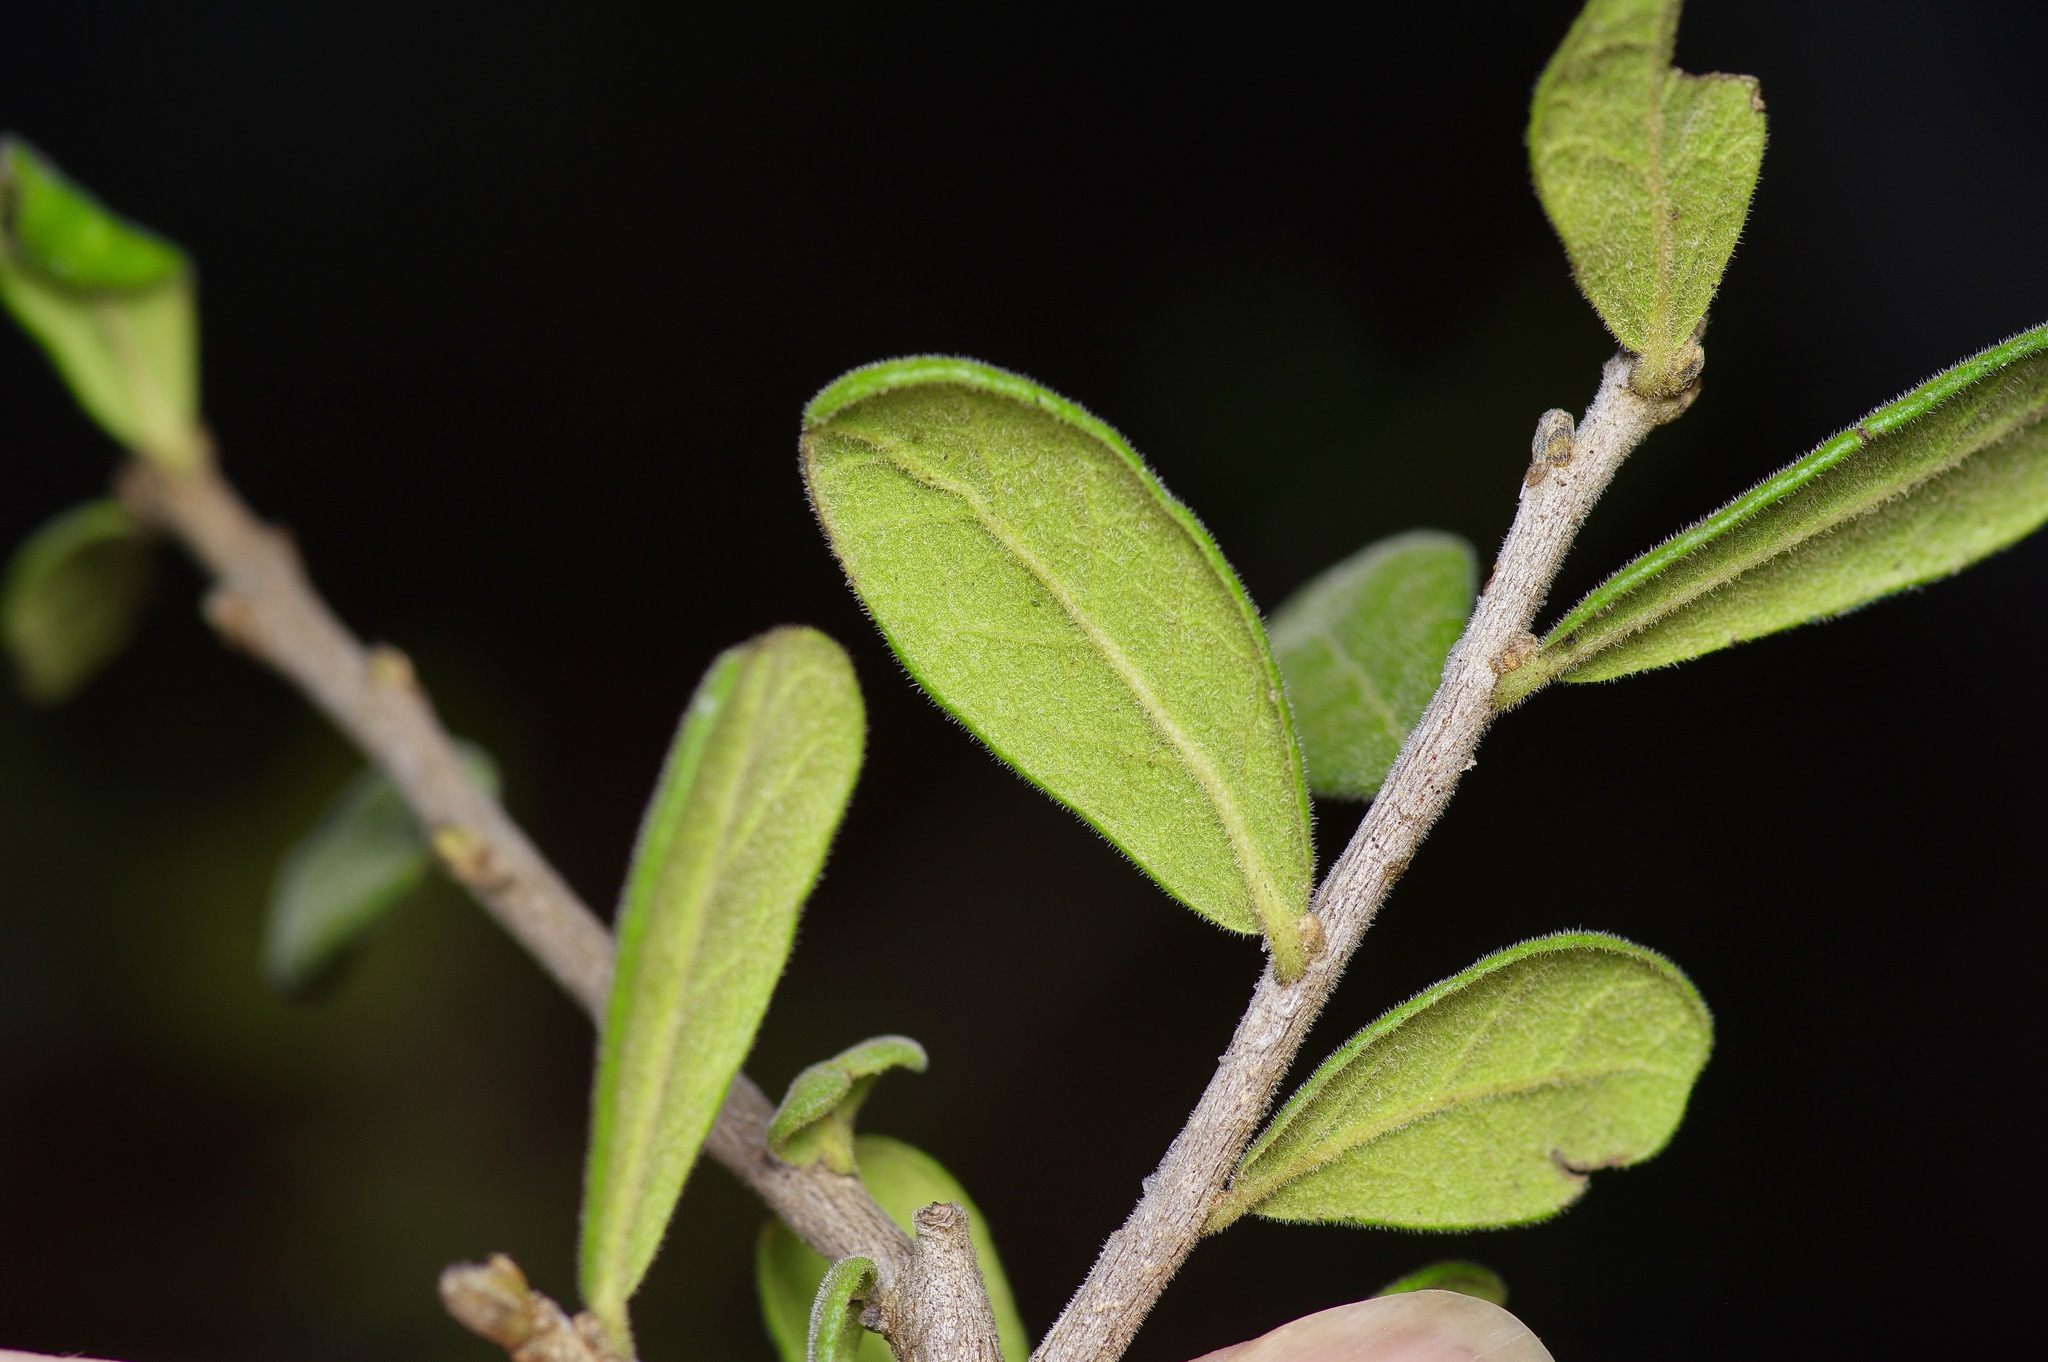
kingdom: Plantae
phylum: Tracheophyta
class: Magnoliopsida
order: Ericales
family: Ebenaceae
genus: Diospyros
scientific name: Diospyros texana
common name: Texas persimmon
